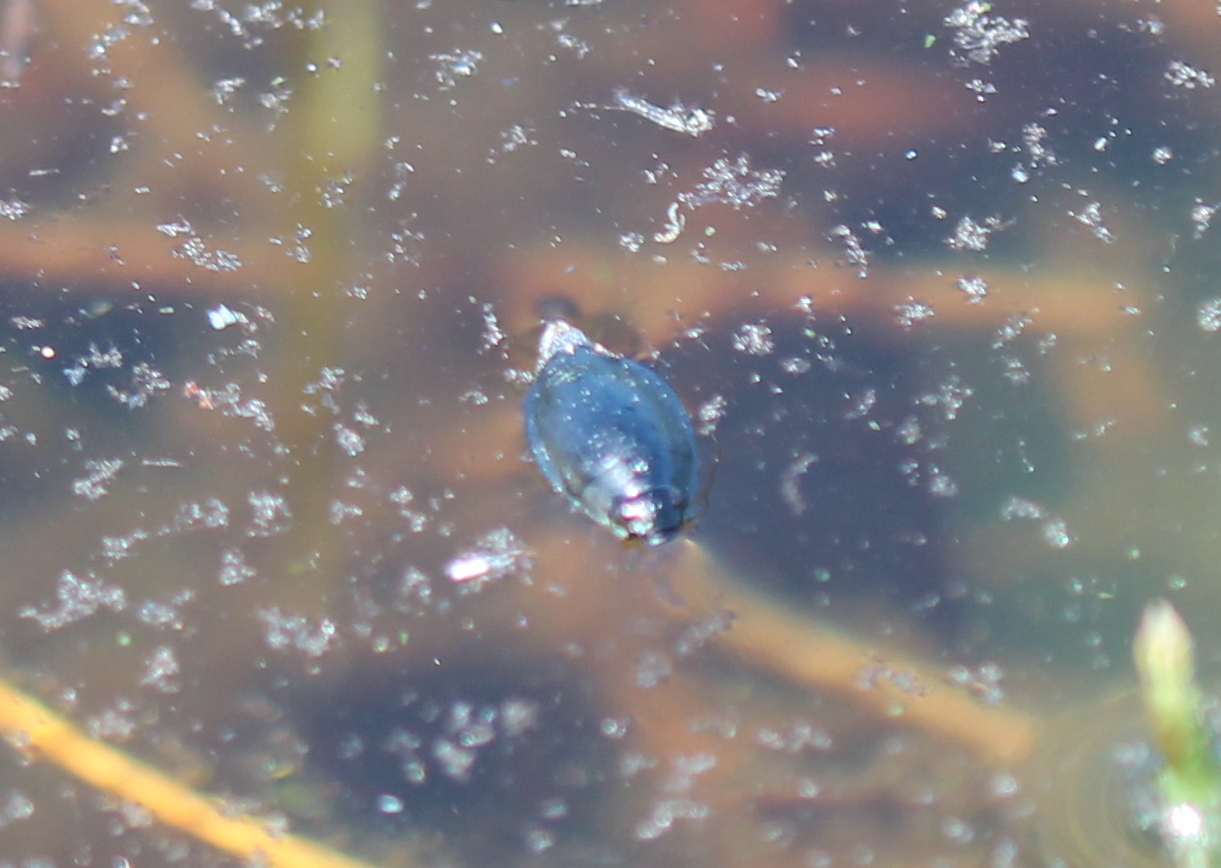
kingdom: Animalia
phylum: Arthropoda
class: Insecta
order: Coleoptera
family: Gyrinidae
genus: Dineutus
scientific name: Dineutus
